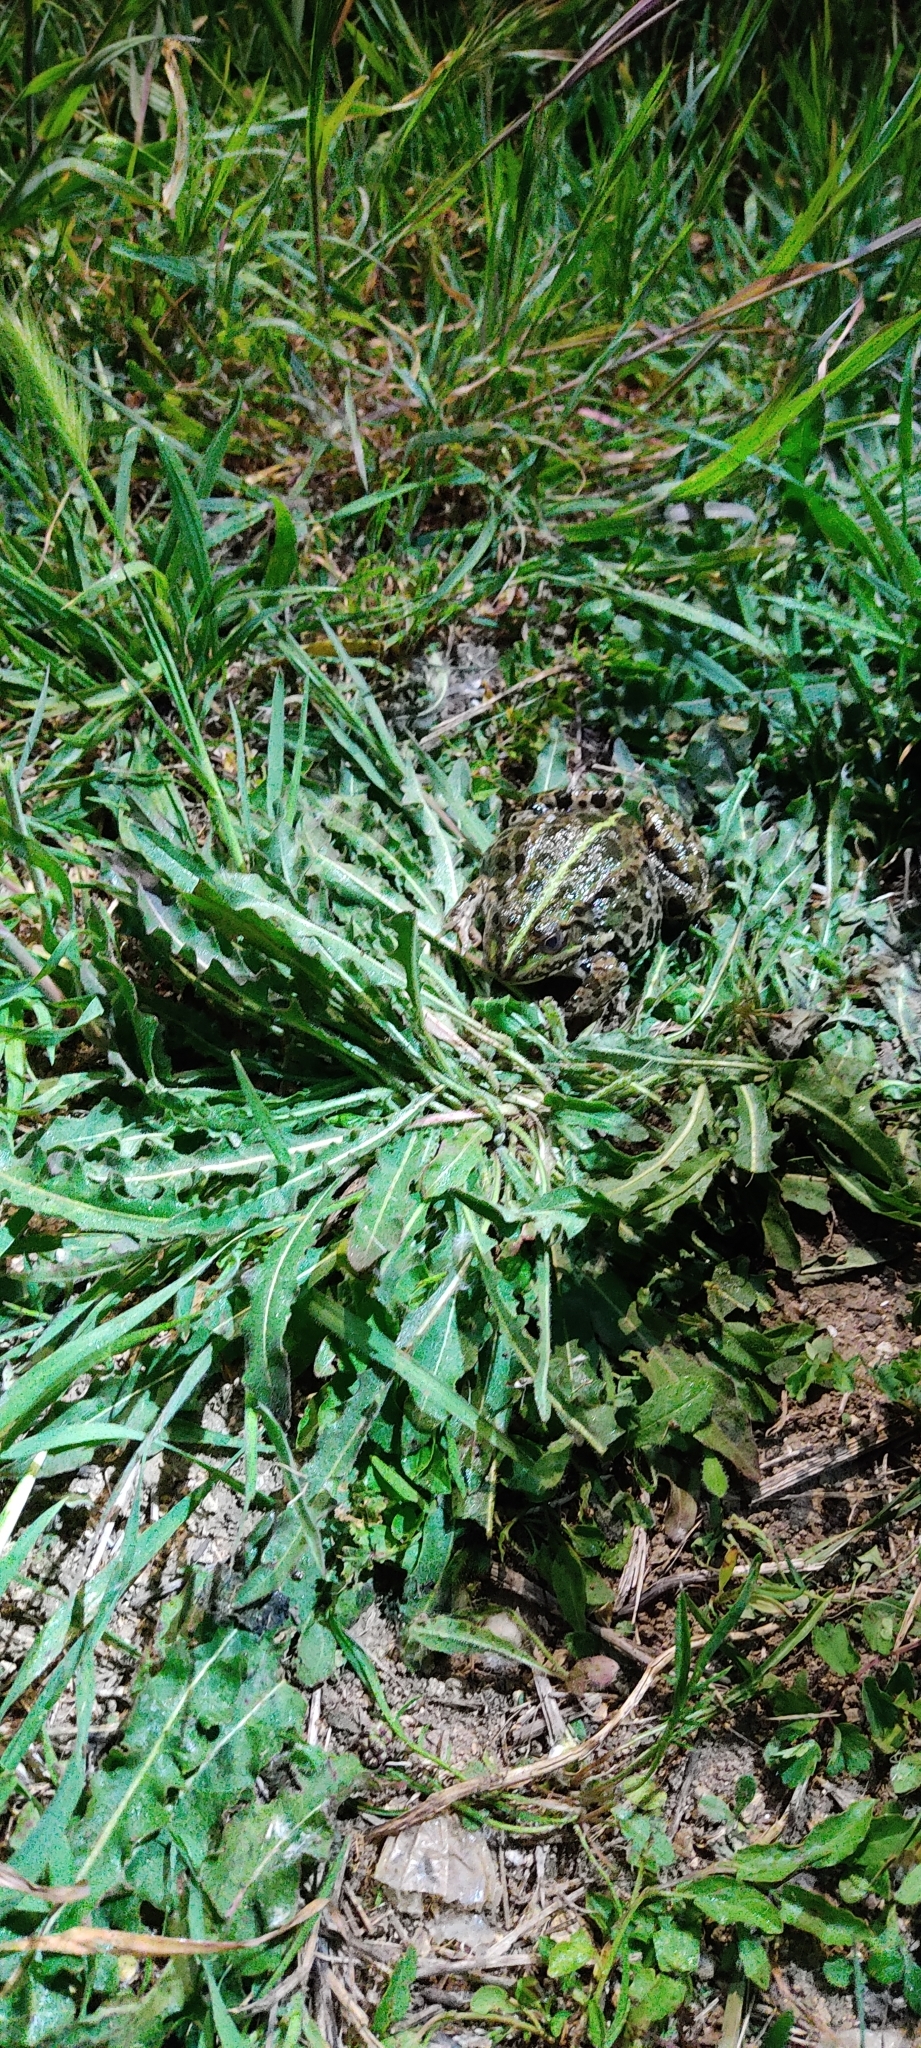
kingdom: Animalia
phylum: Chordata
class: Amphibia
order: Anura
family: Ranidae
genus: Pelophylax
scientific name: Pelophylax ridibundus
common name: Marsh frog
